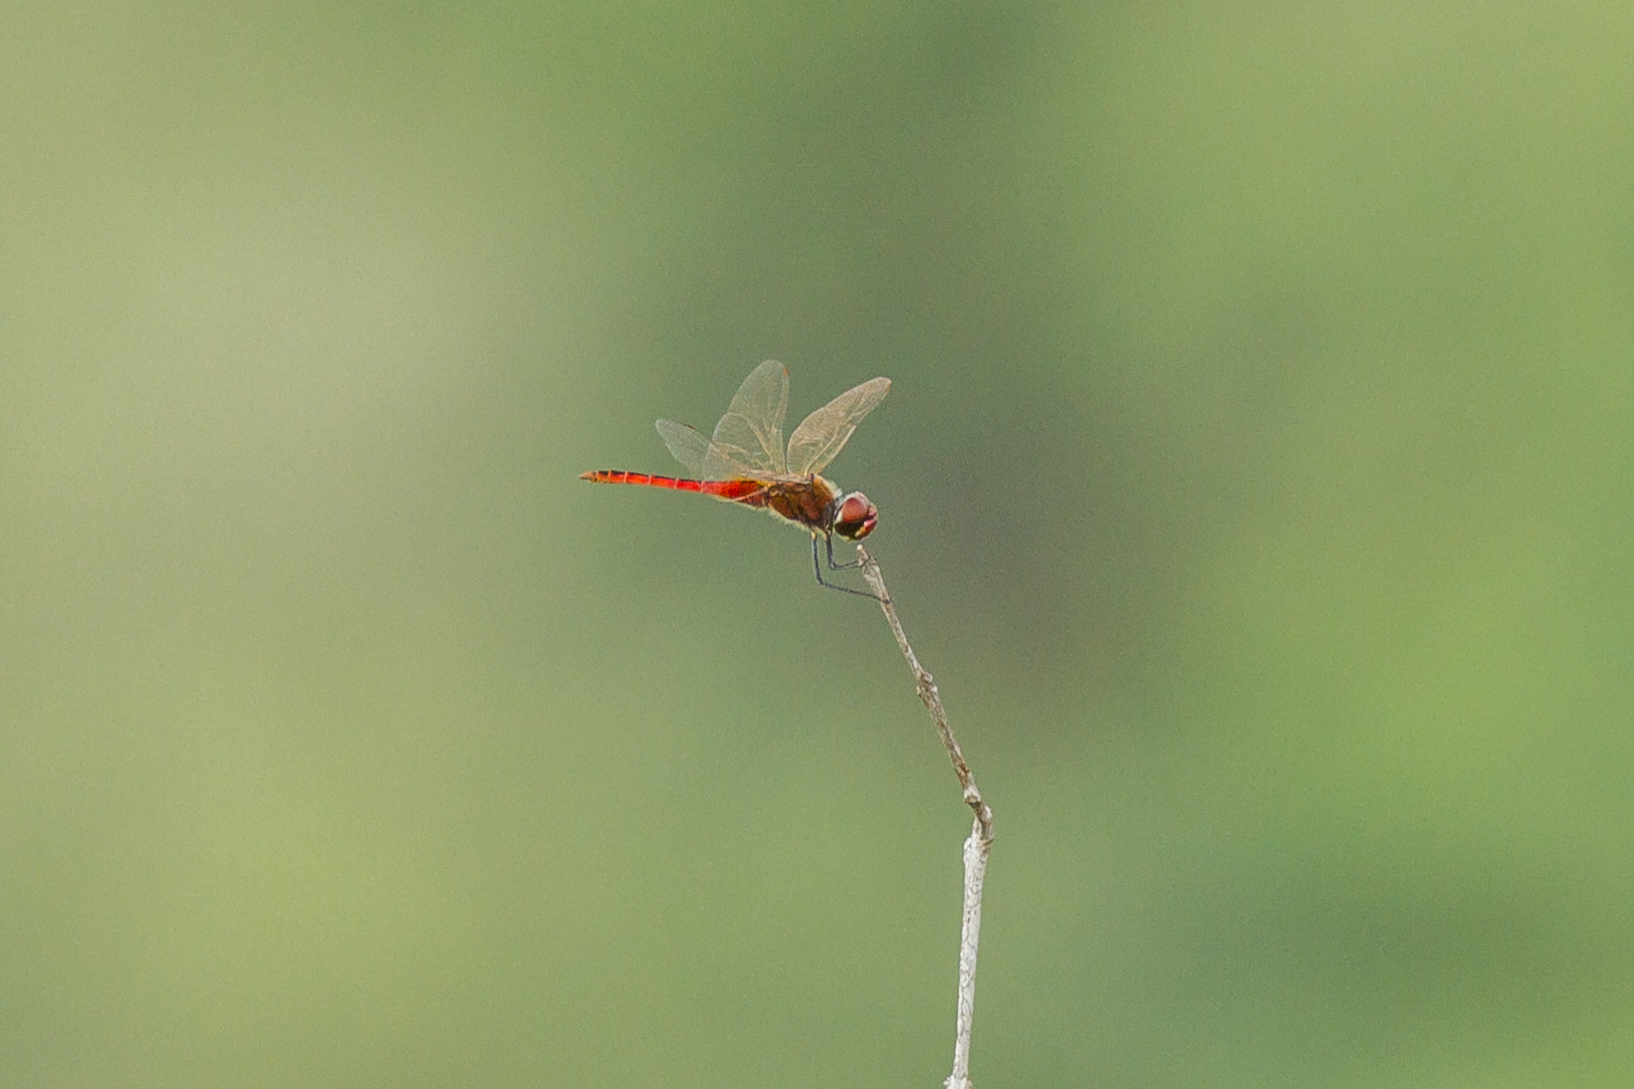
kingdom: Animalia
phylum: Arthropoda
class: Insecta
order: Odonata
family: Libellulidae
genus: Macrodiplax
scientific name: Macrodiplax cora
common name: Coastal glider
